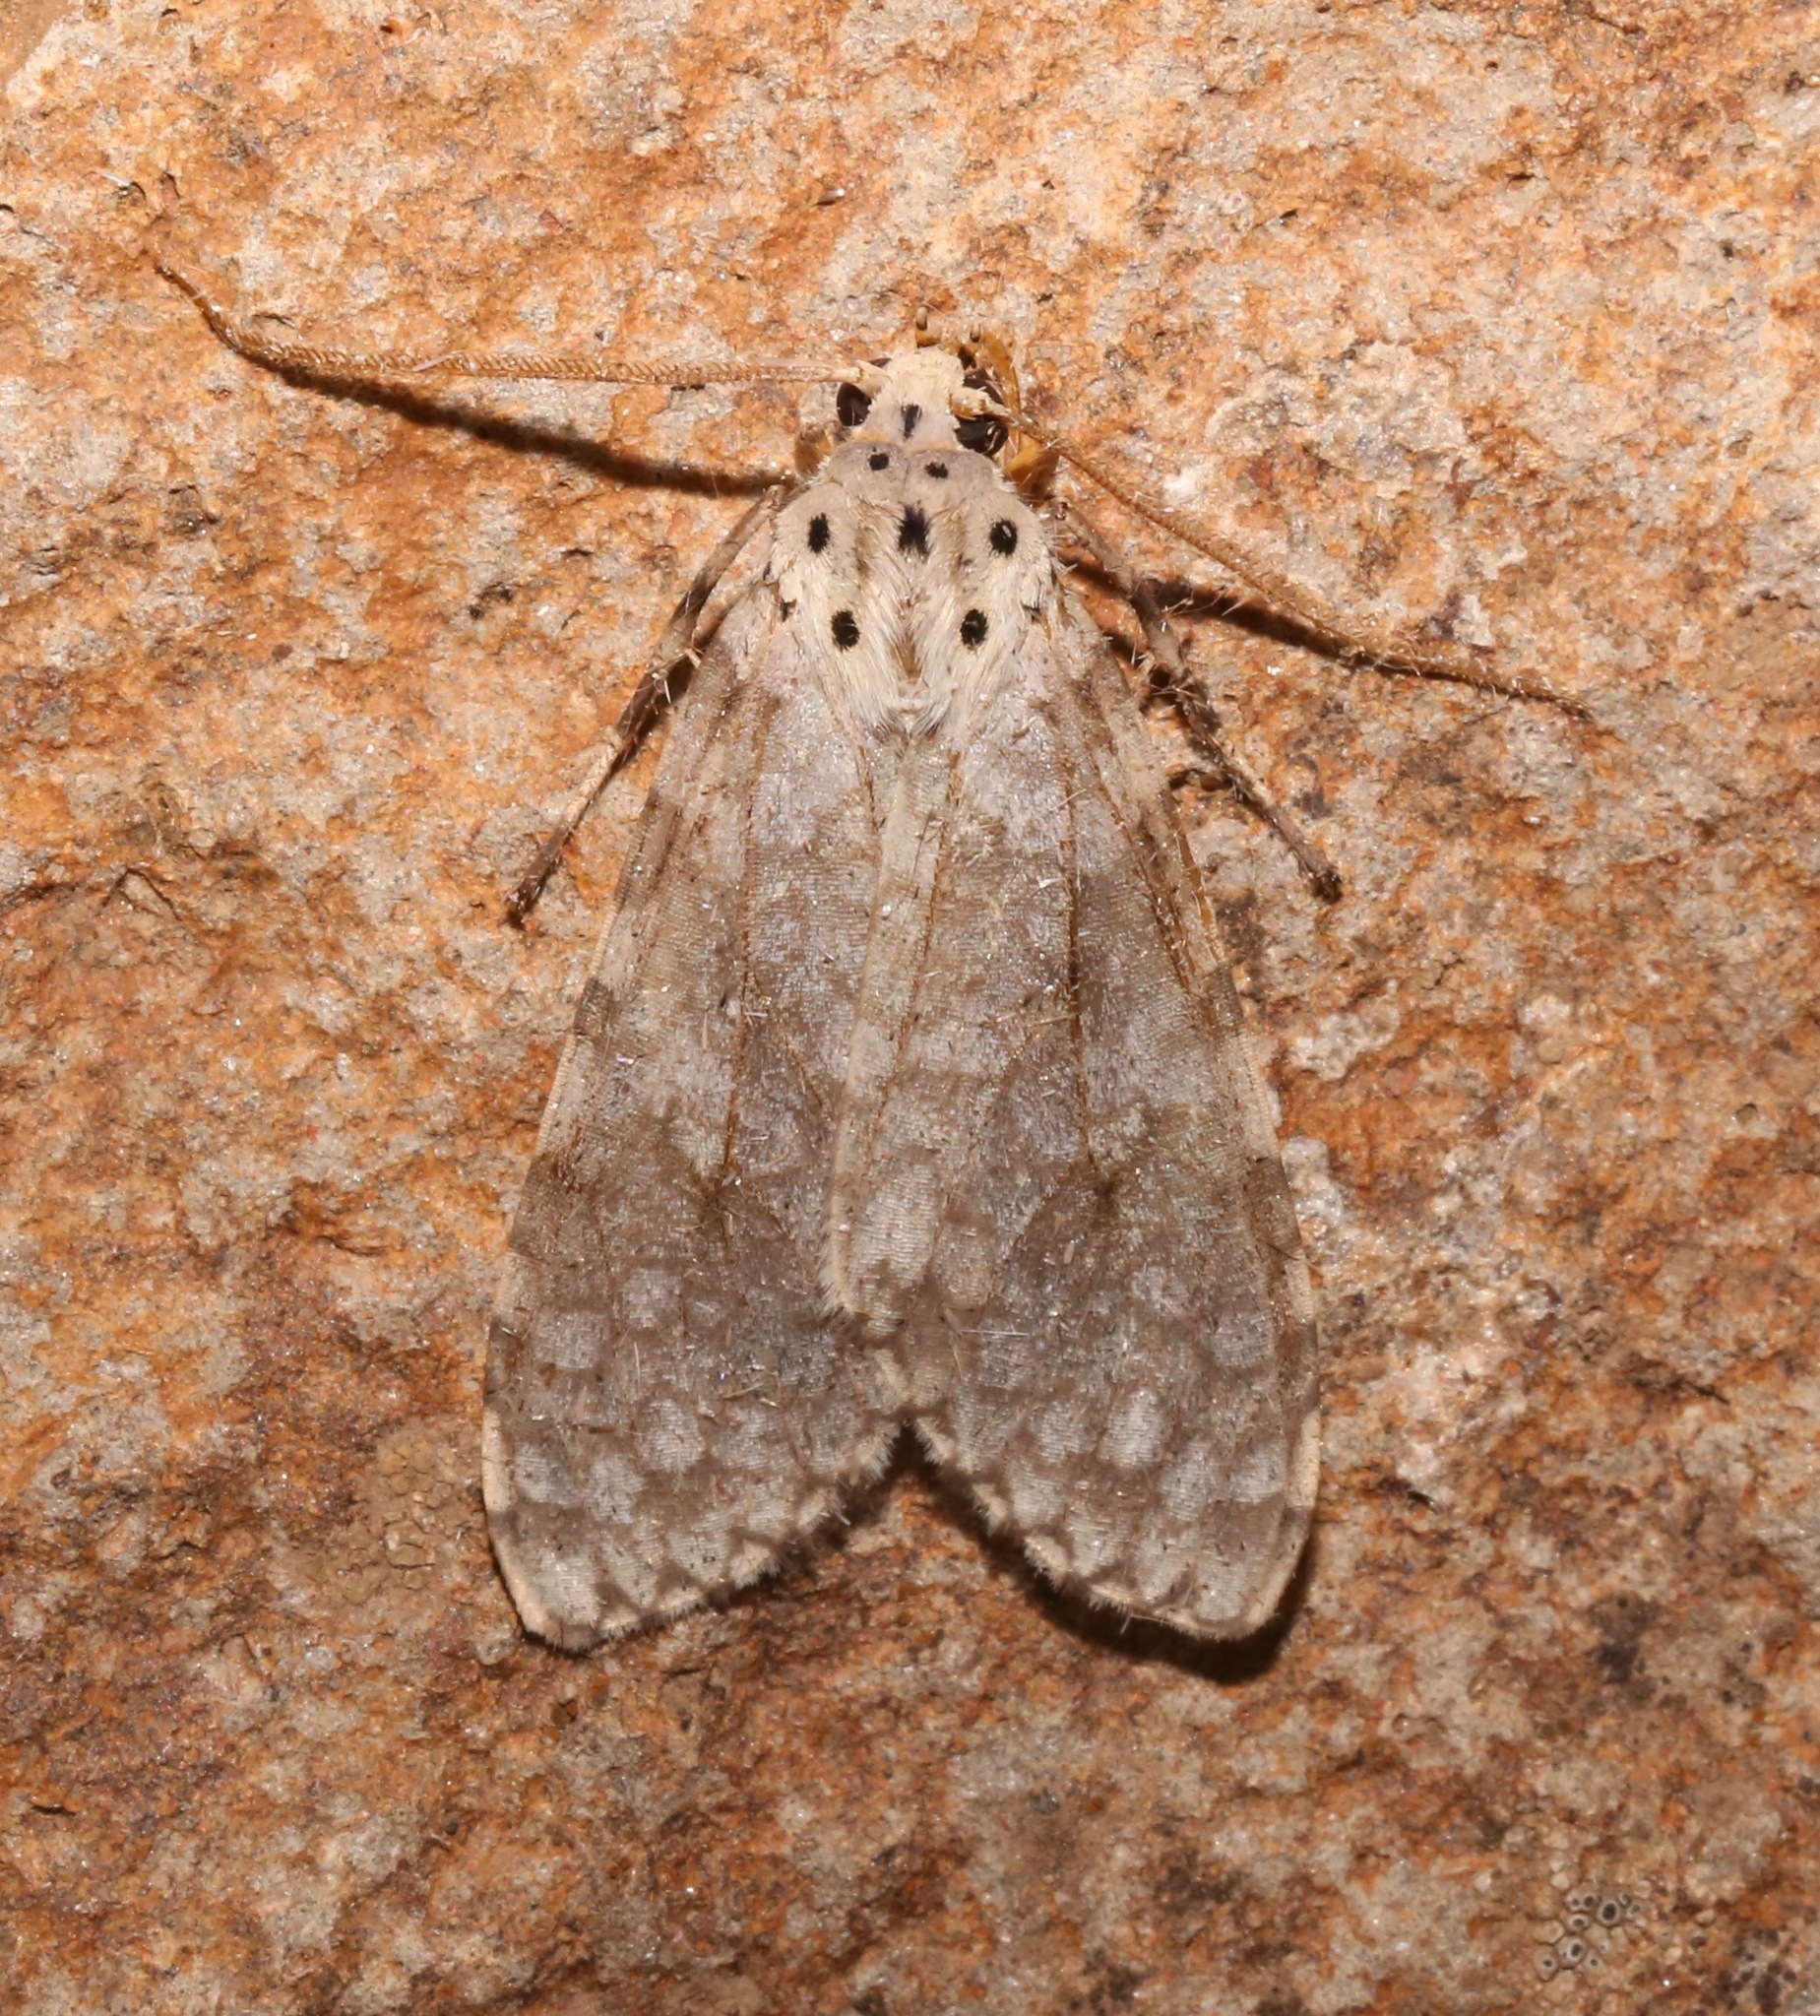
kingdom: Animalia
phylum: Arthropoda
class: Insecta
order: Lepidoptera
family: Erebidae
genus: Carales
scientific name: Carales arizonensis
